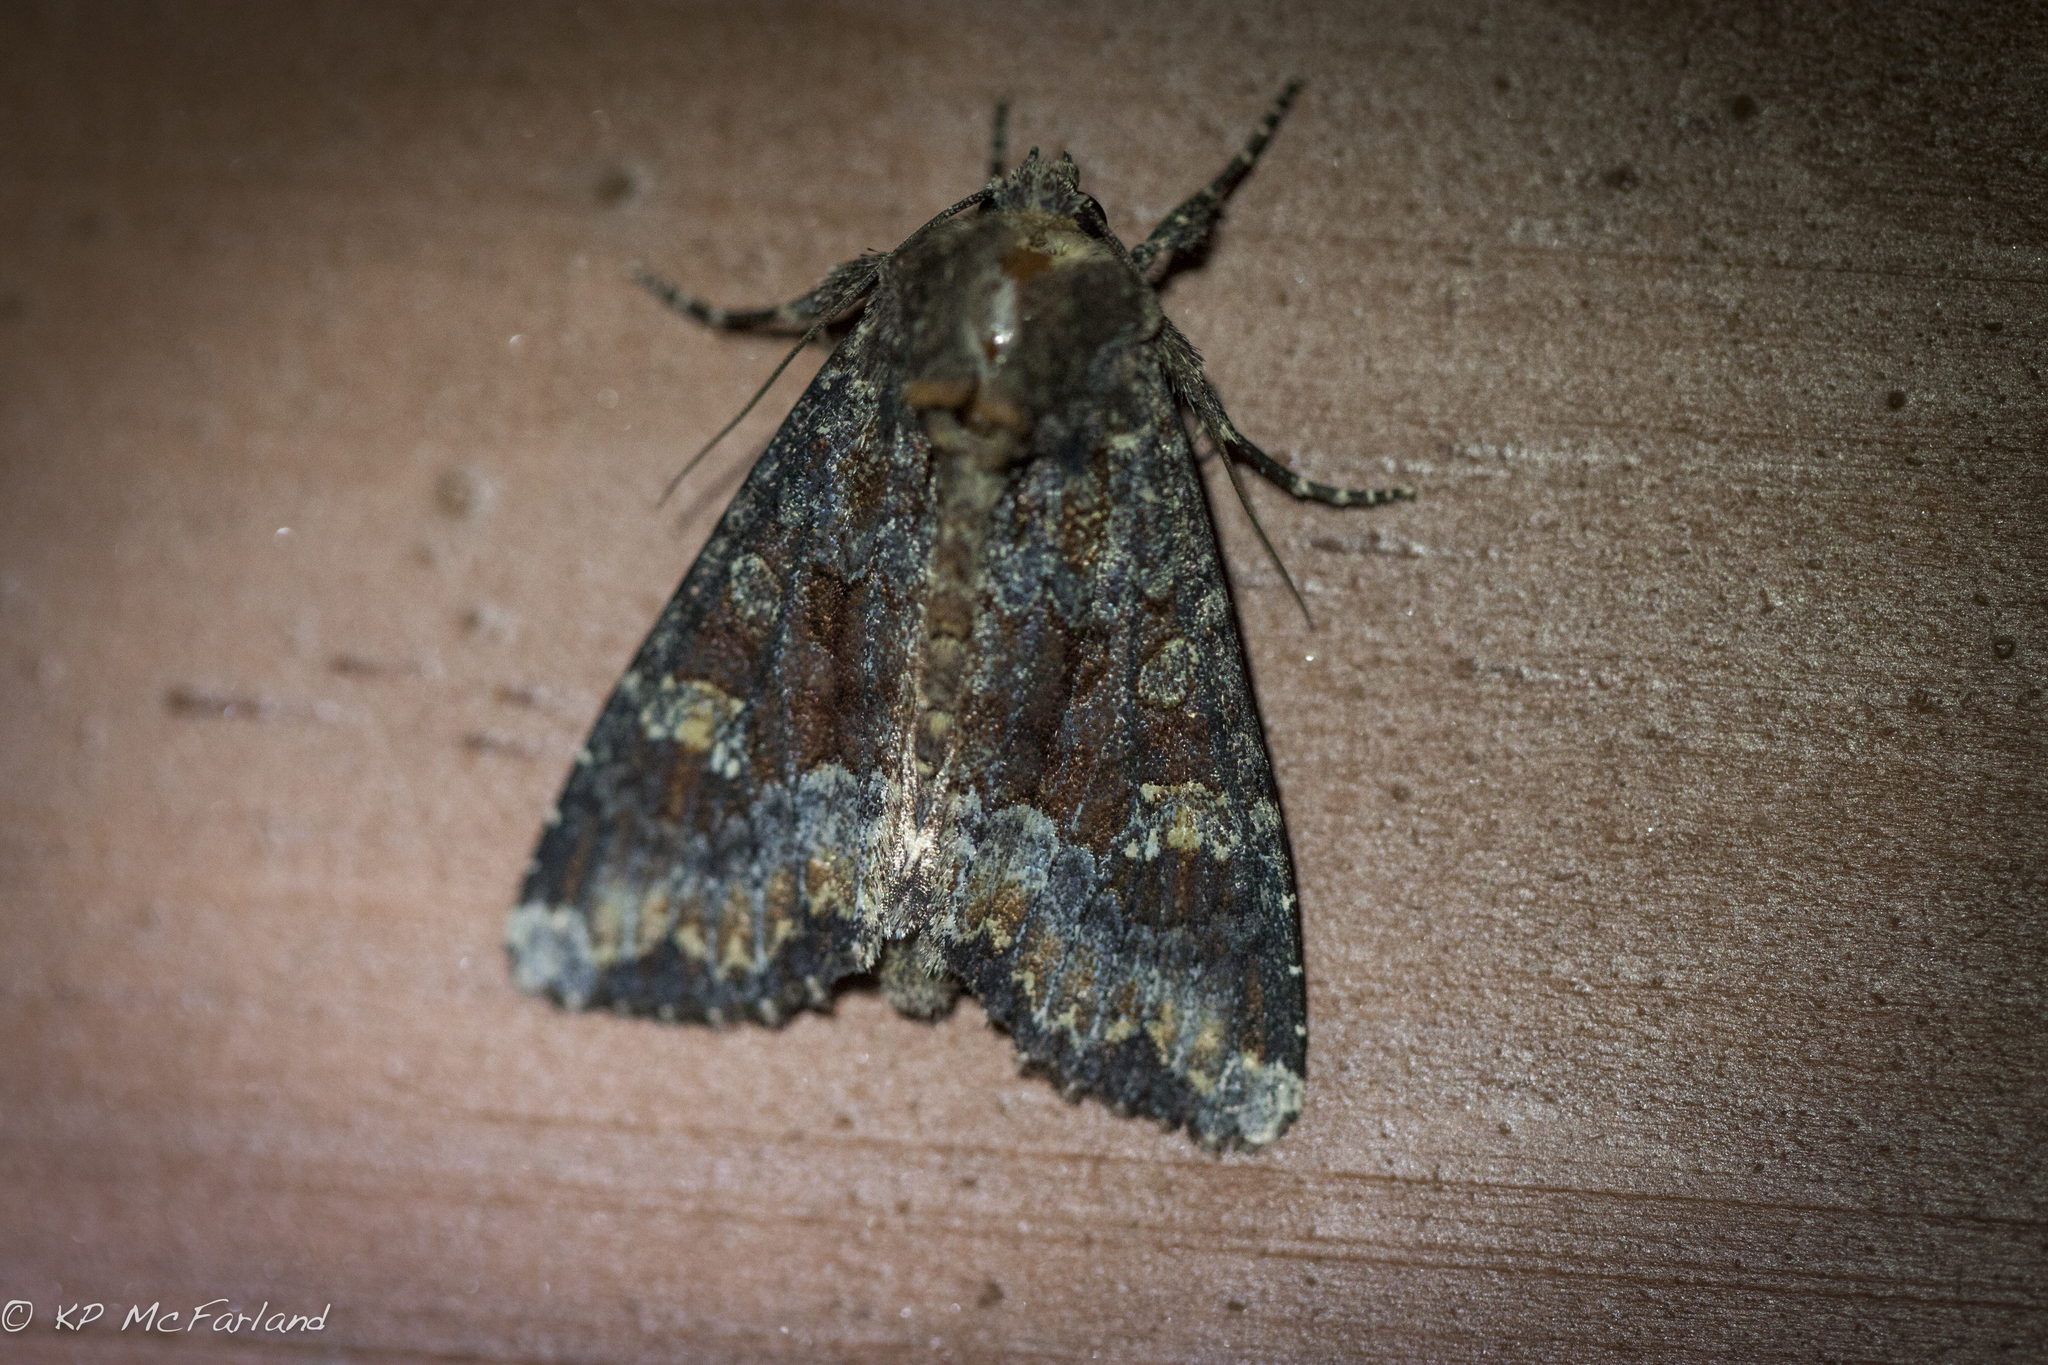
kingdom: Animalia
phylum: Arthropoda
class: Insecta
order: Lepidoptera
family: Noctuidae
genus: Apamea
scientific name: Apamea amputatrix
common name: Yellow-headed cutworm moth
